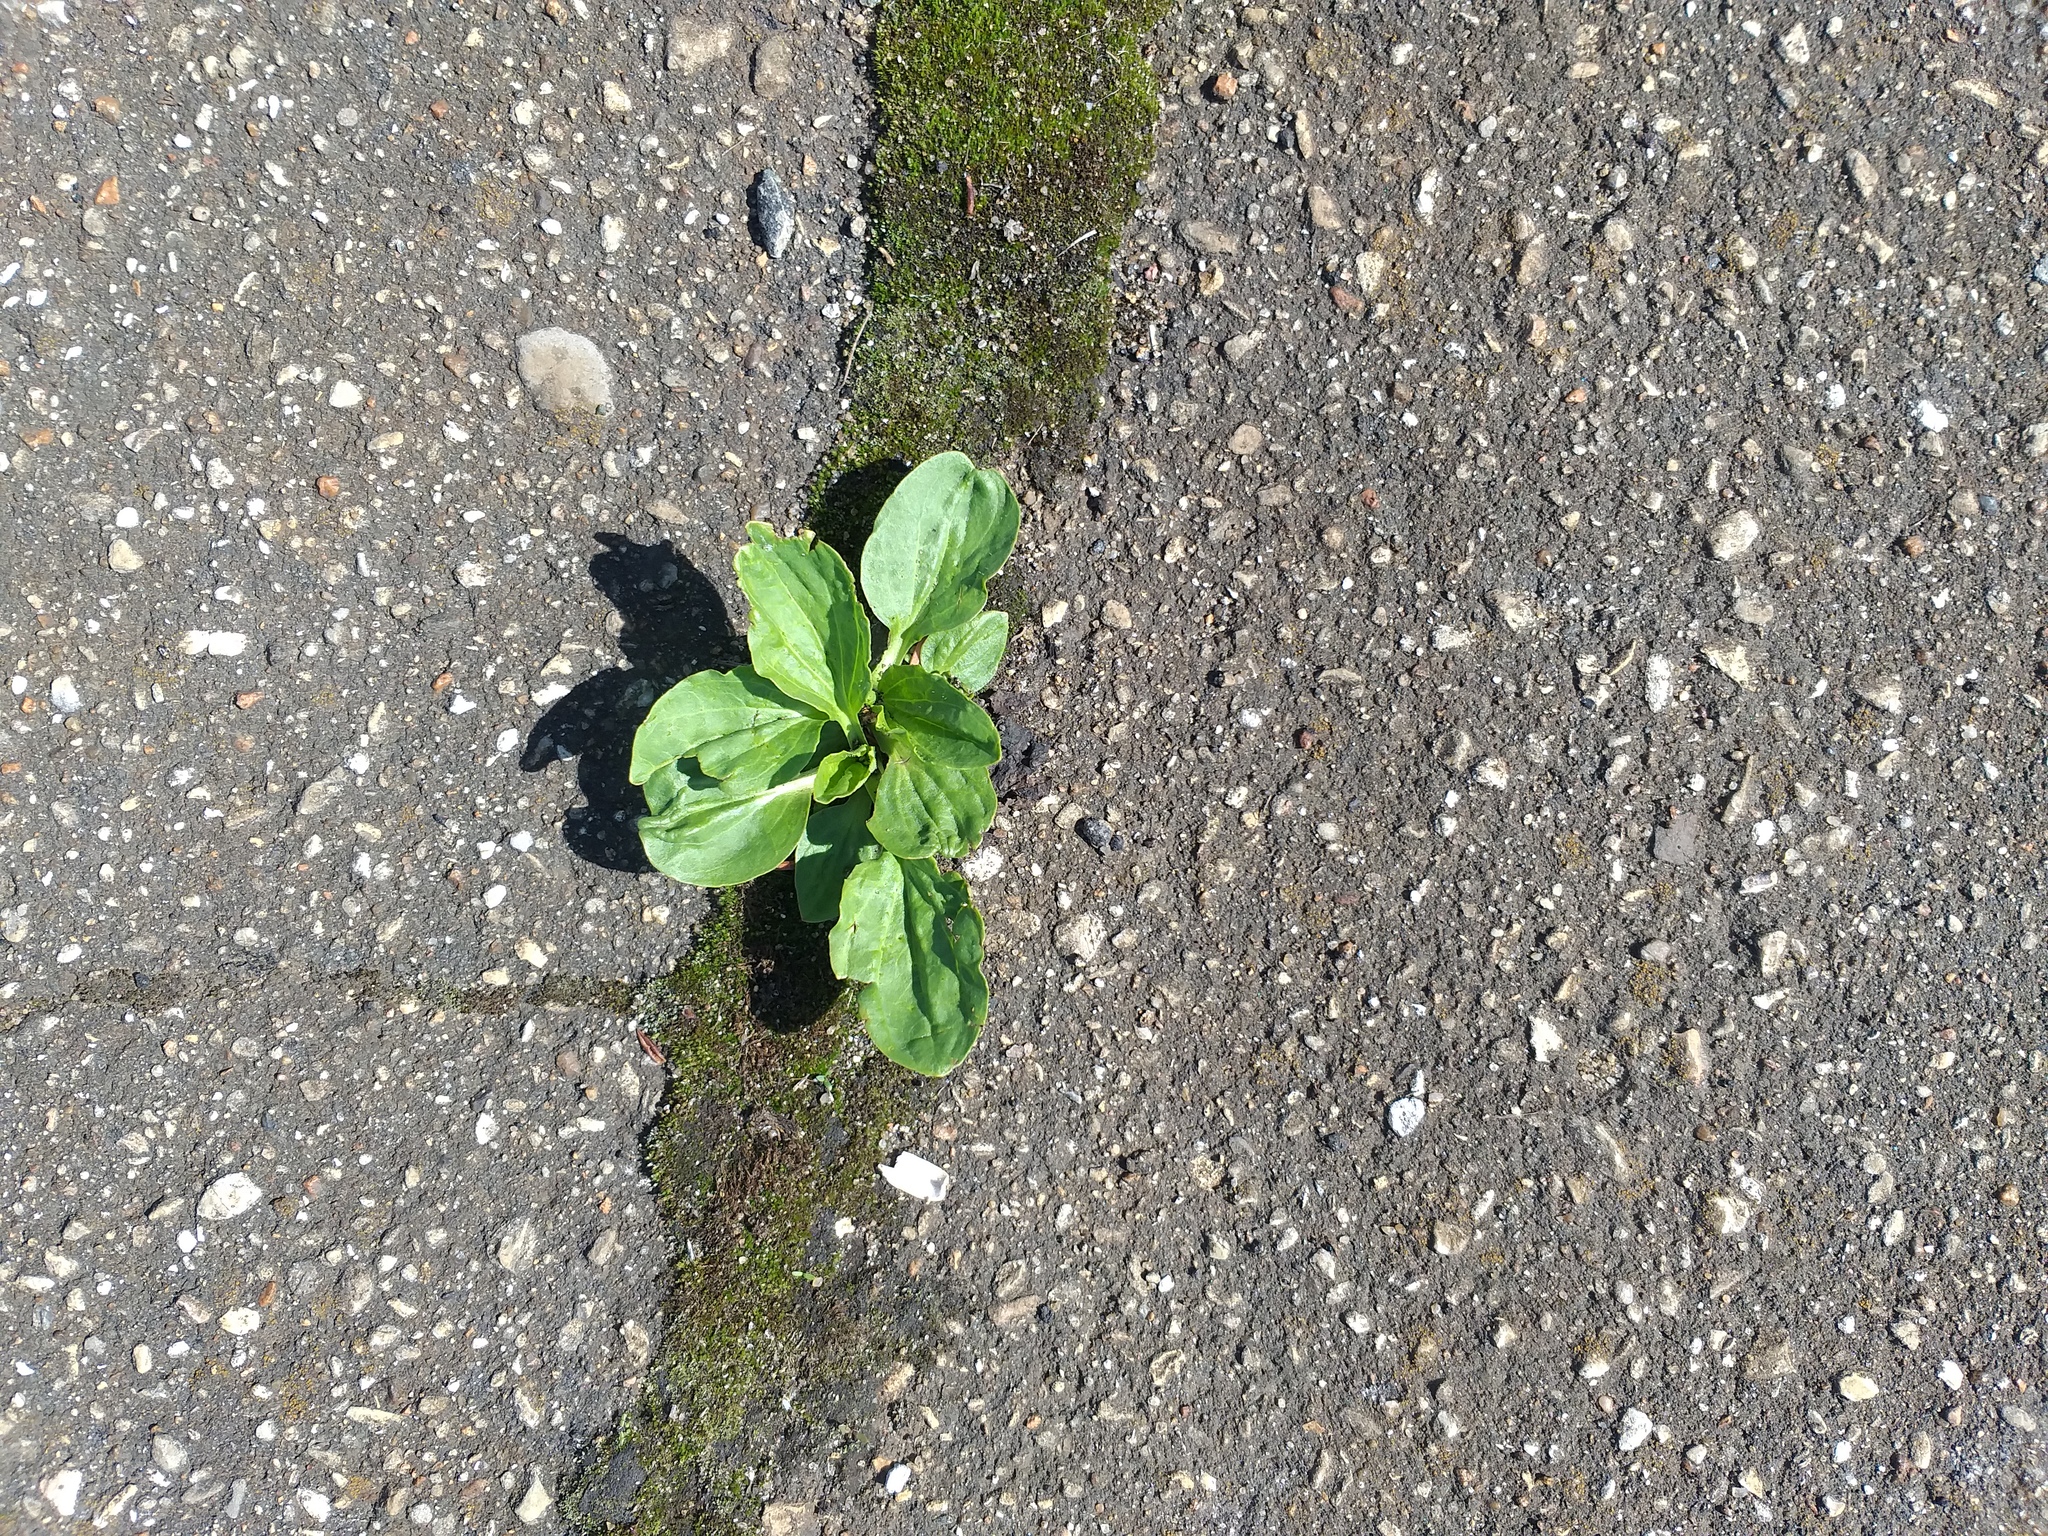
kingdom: Plantae
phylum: Tracheophyta
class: Magnoliopsida
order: Lamiales
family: Plantaginaceae
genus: Plantago
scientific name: Plantago major
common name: Common plantain
